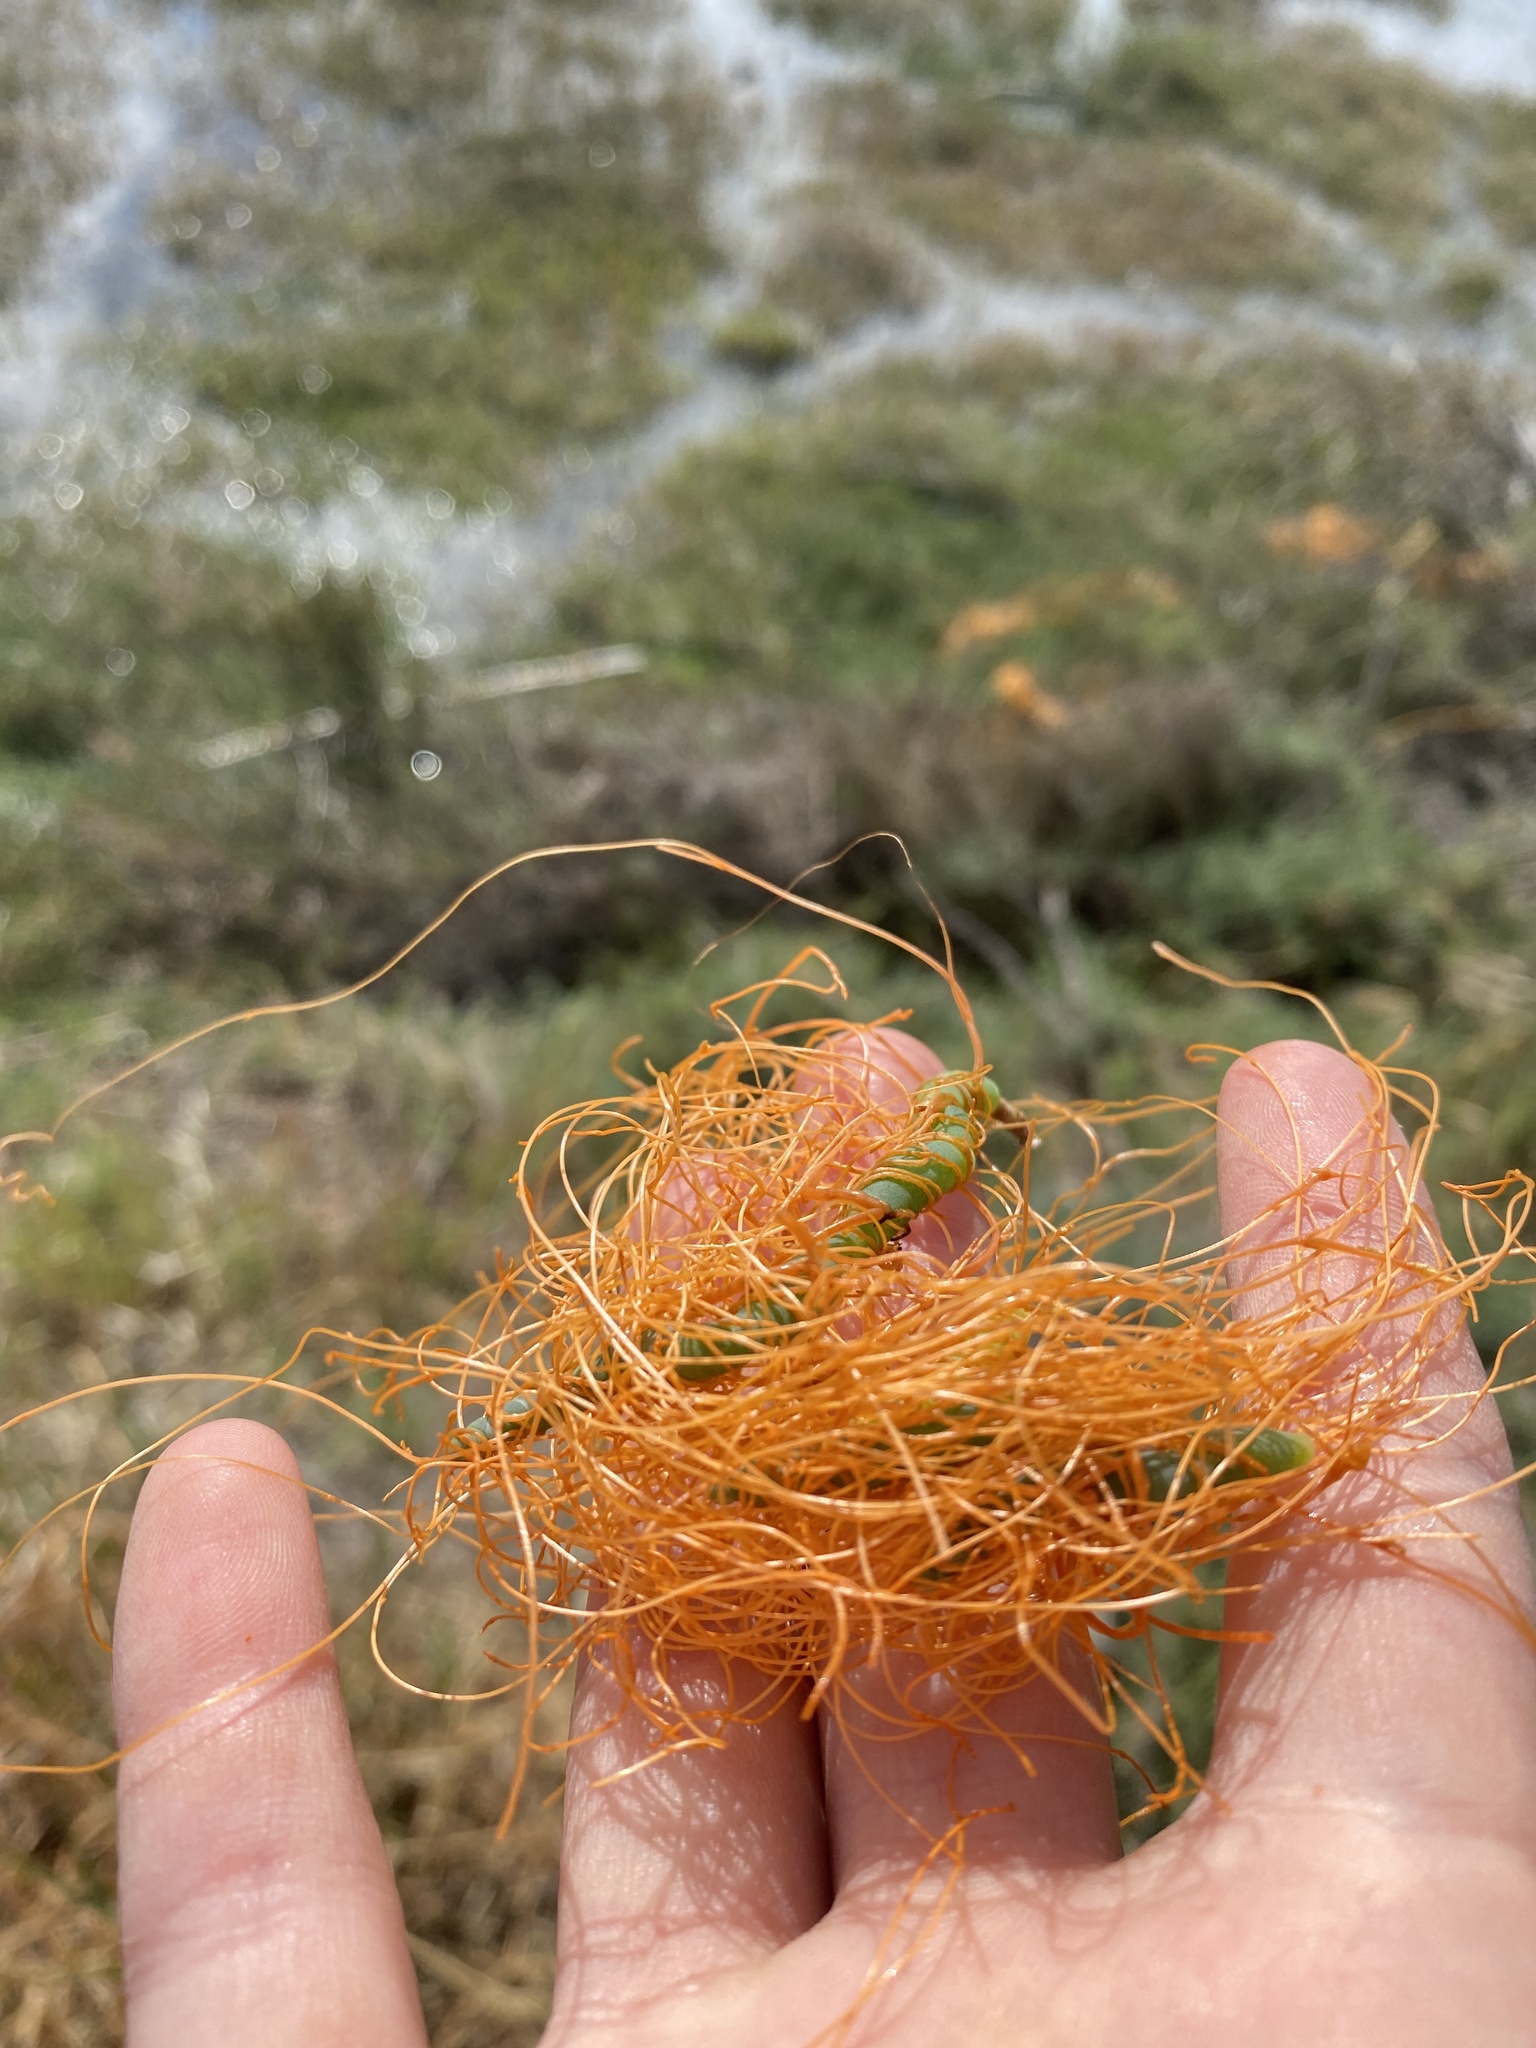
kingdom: Plantae
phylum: Tracheophyta
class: Magnoliopsida
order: Solanales
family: Convolvulaceae
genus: Cuscuta
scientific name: Cuscuta pacifica
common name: Large saltmarsh dodder
